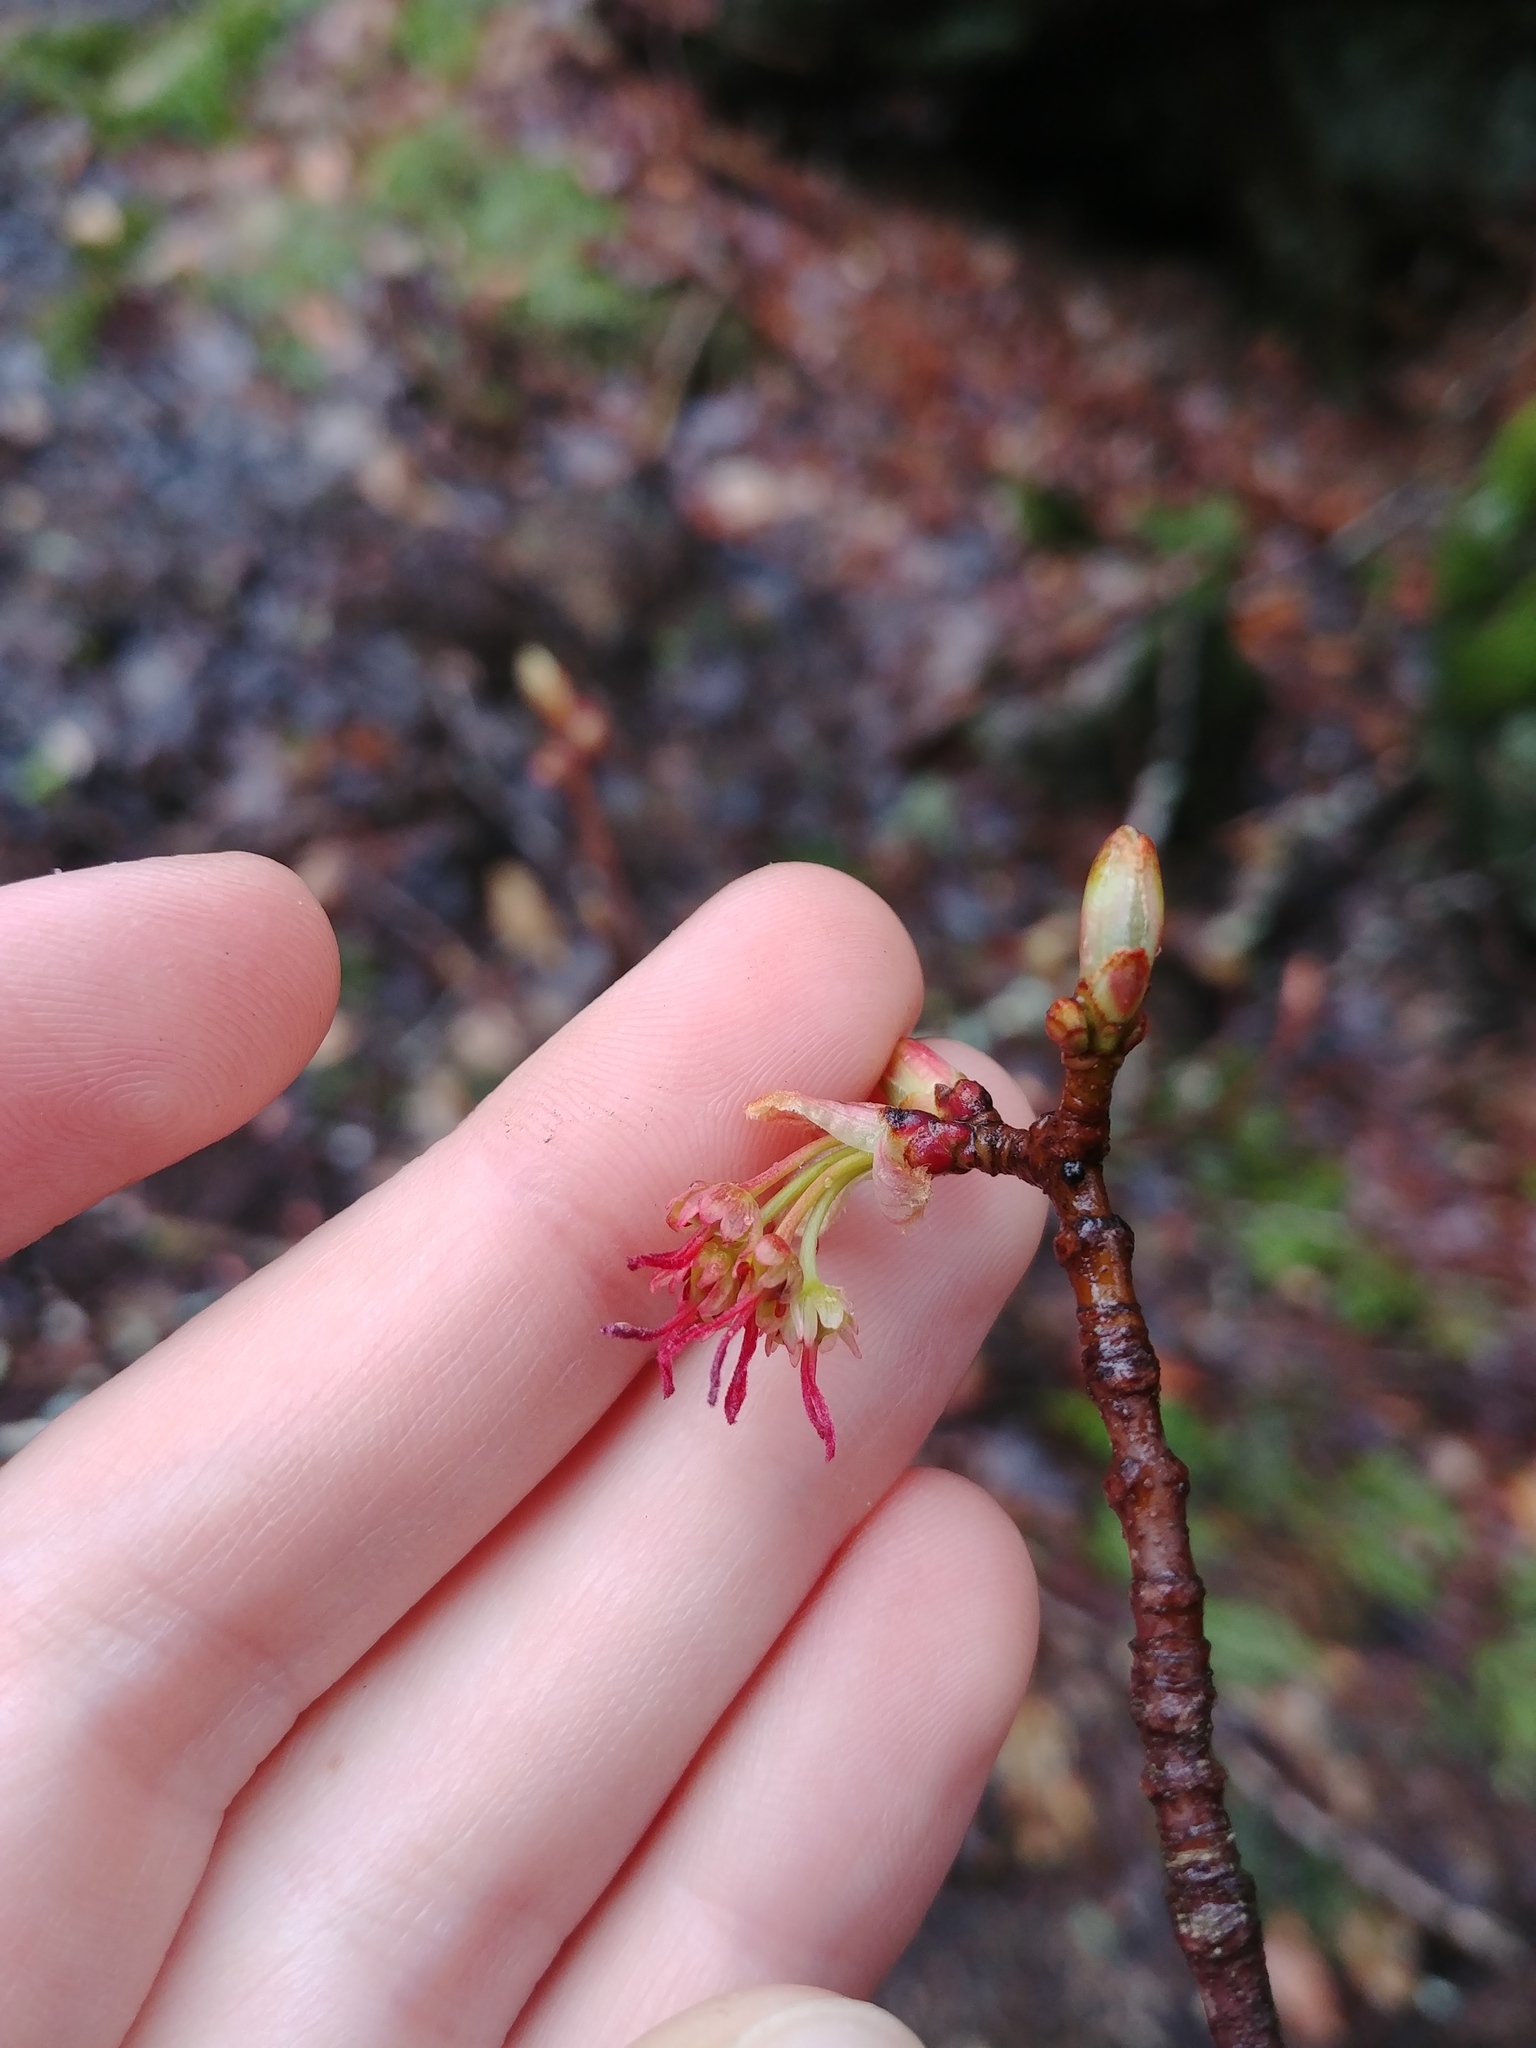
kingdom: Plantae
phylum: Tracheophyta
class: Magnoliopsida
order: Sapindales
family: Sapindaceae
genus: Acer
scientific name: Acer rubrum
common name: Red maple
